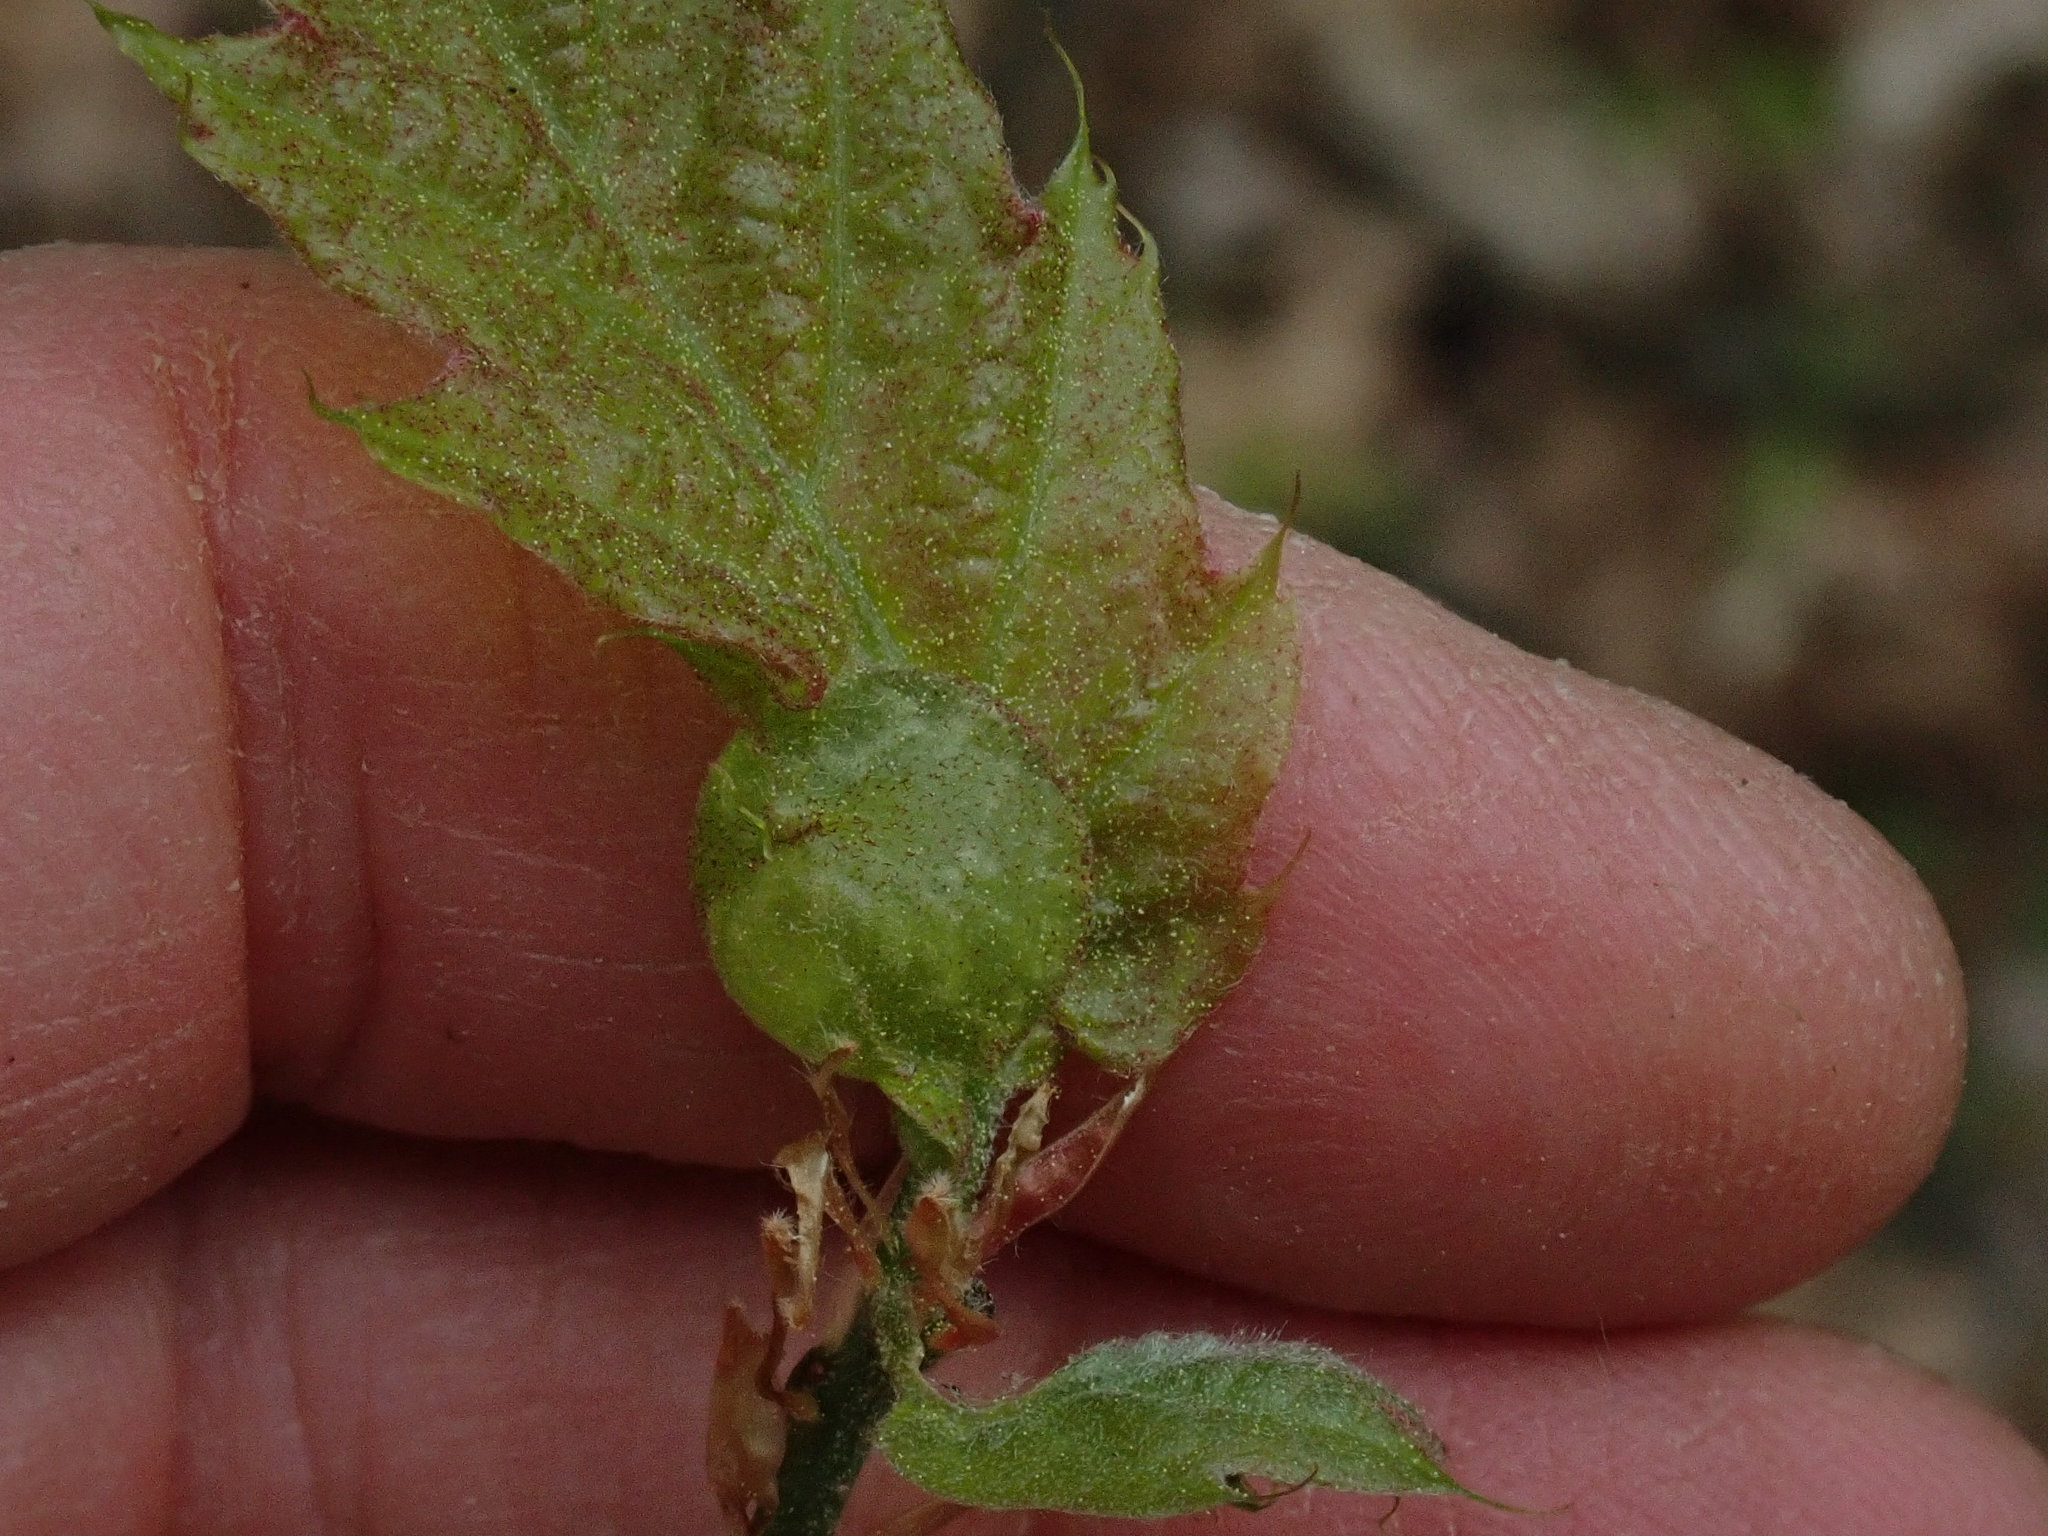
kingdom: Animalia
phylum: Arthropoda
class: Insecta
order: Hymenoptera
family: Cynipidae
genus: Dryocosmus
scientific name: Dryocosmus quercuspalustris
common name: Succulent oak gall wasp
